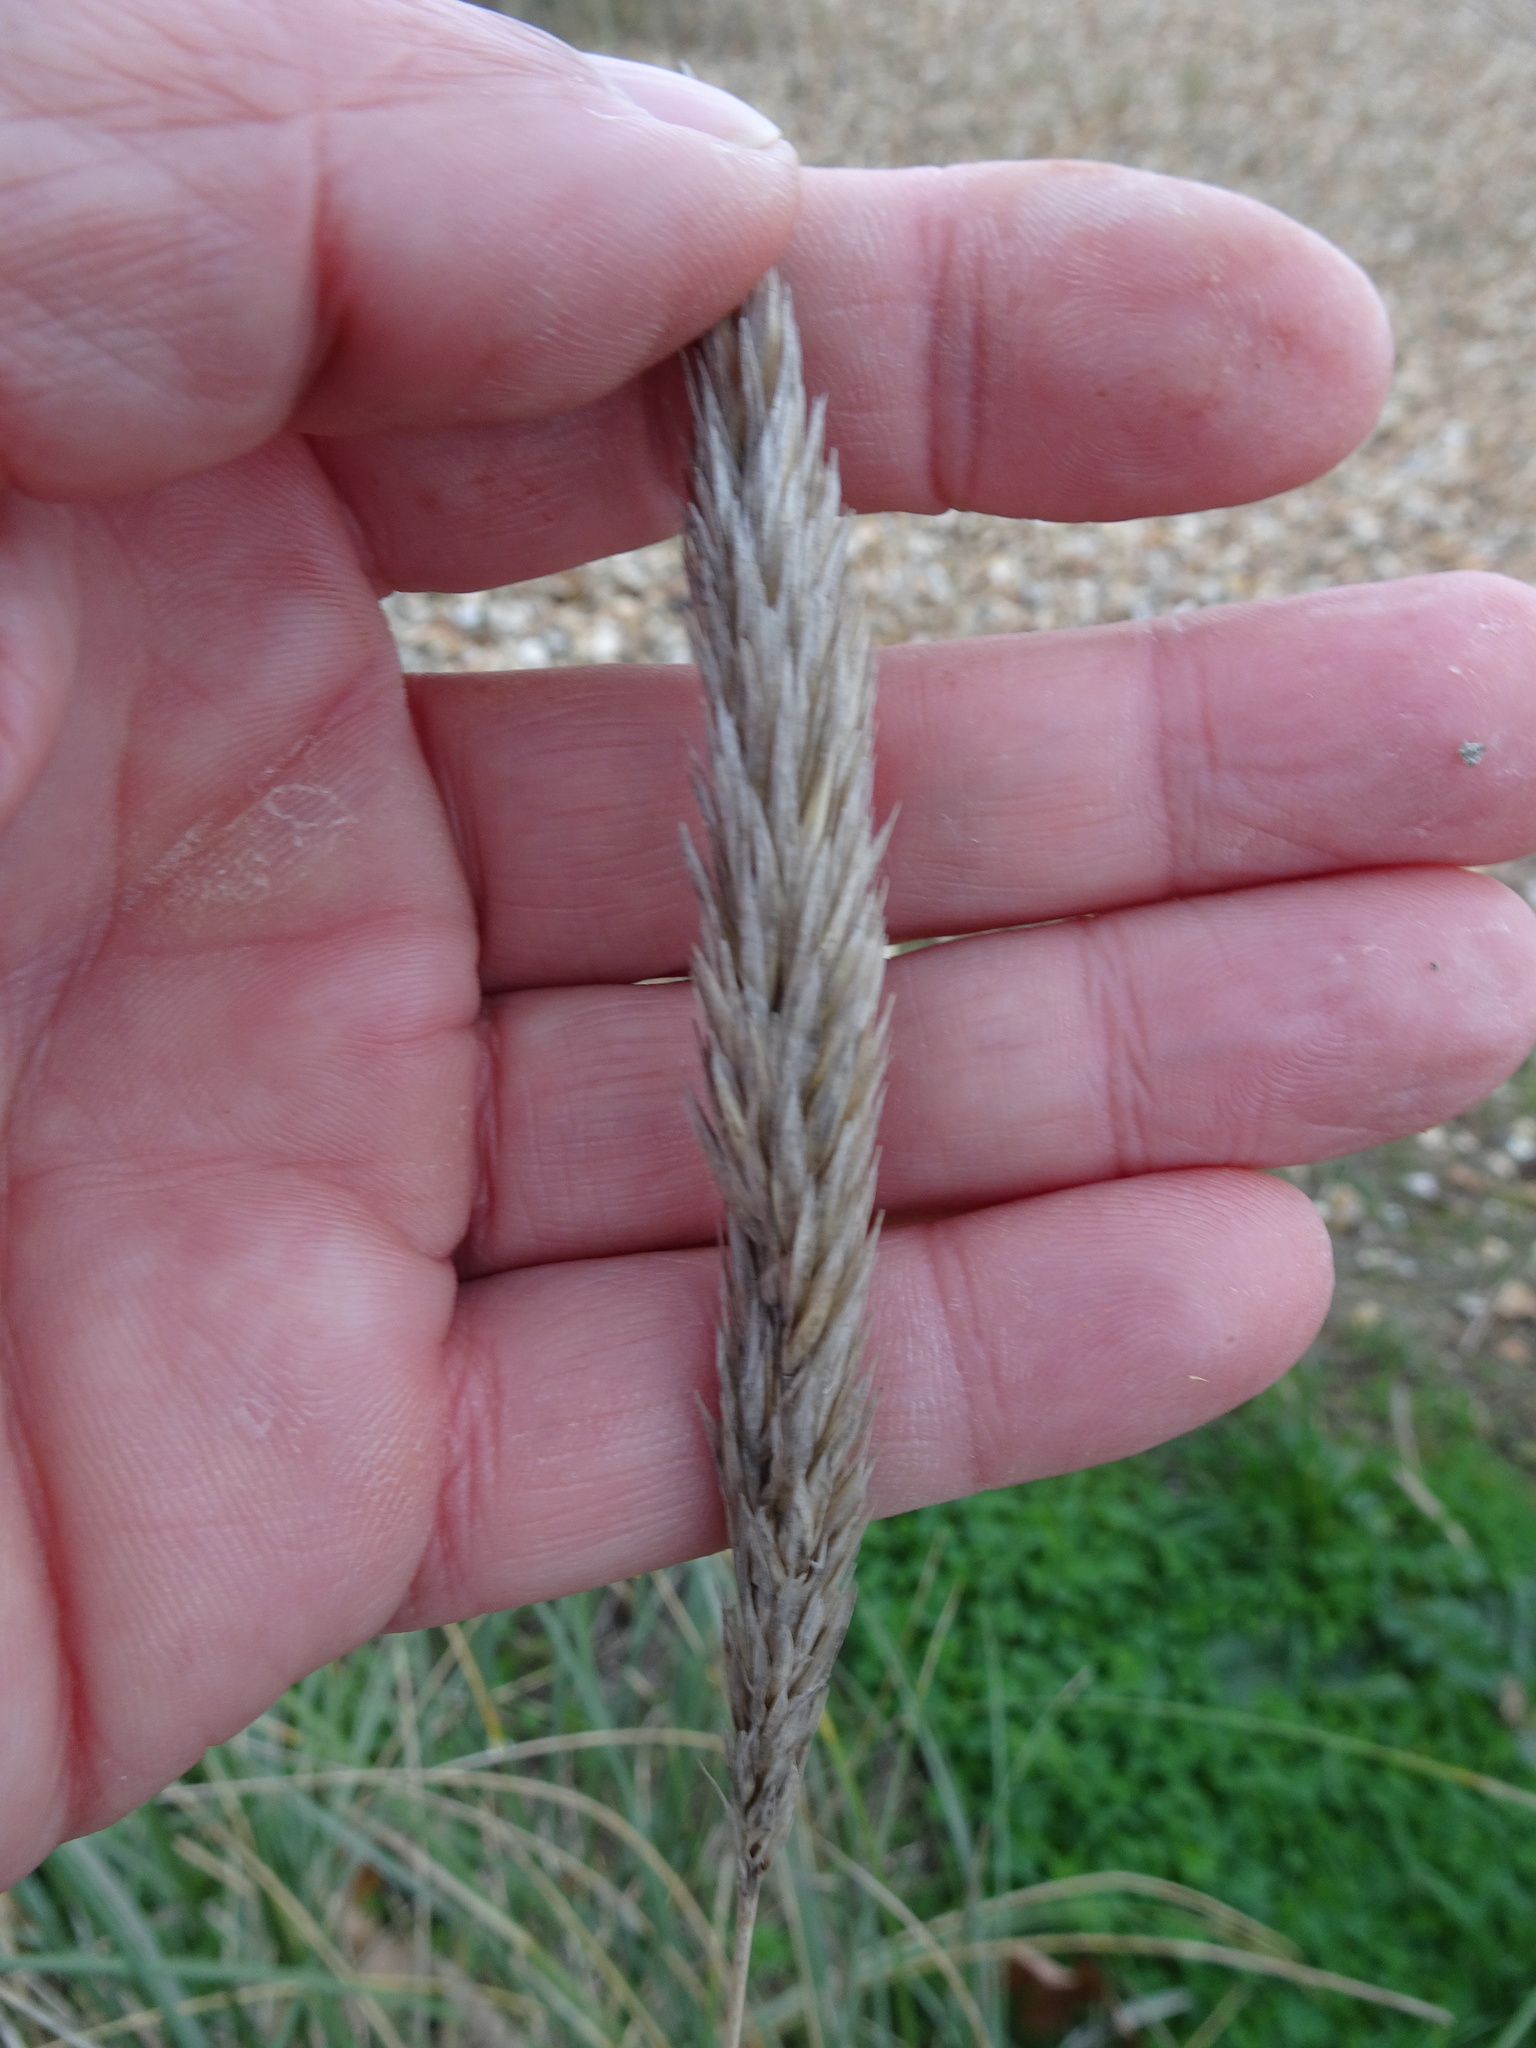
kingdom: Plantae
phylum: Tracheophyta
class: Liliopsida
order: Poales
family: Poaceae
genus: Calamagrostis
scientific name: Calamagrostis arenaria
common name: European beachgrass
